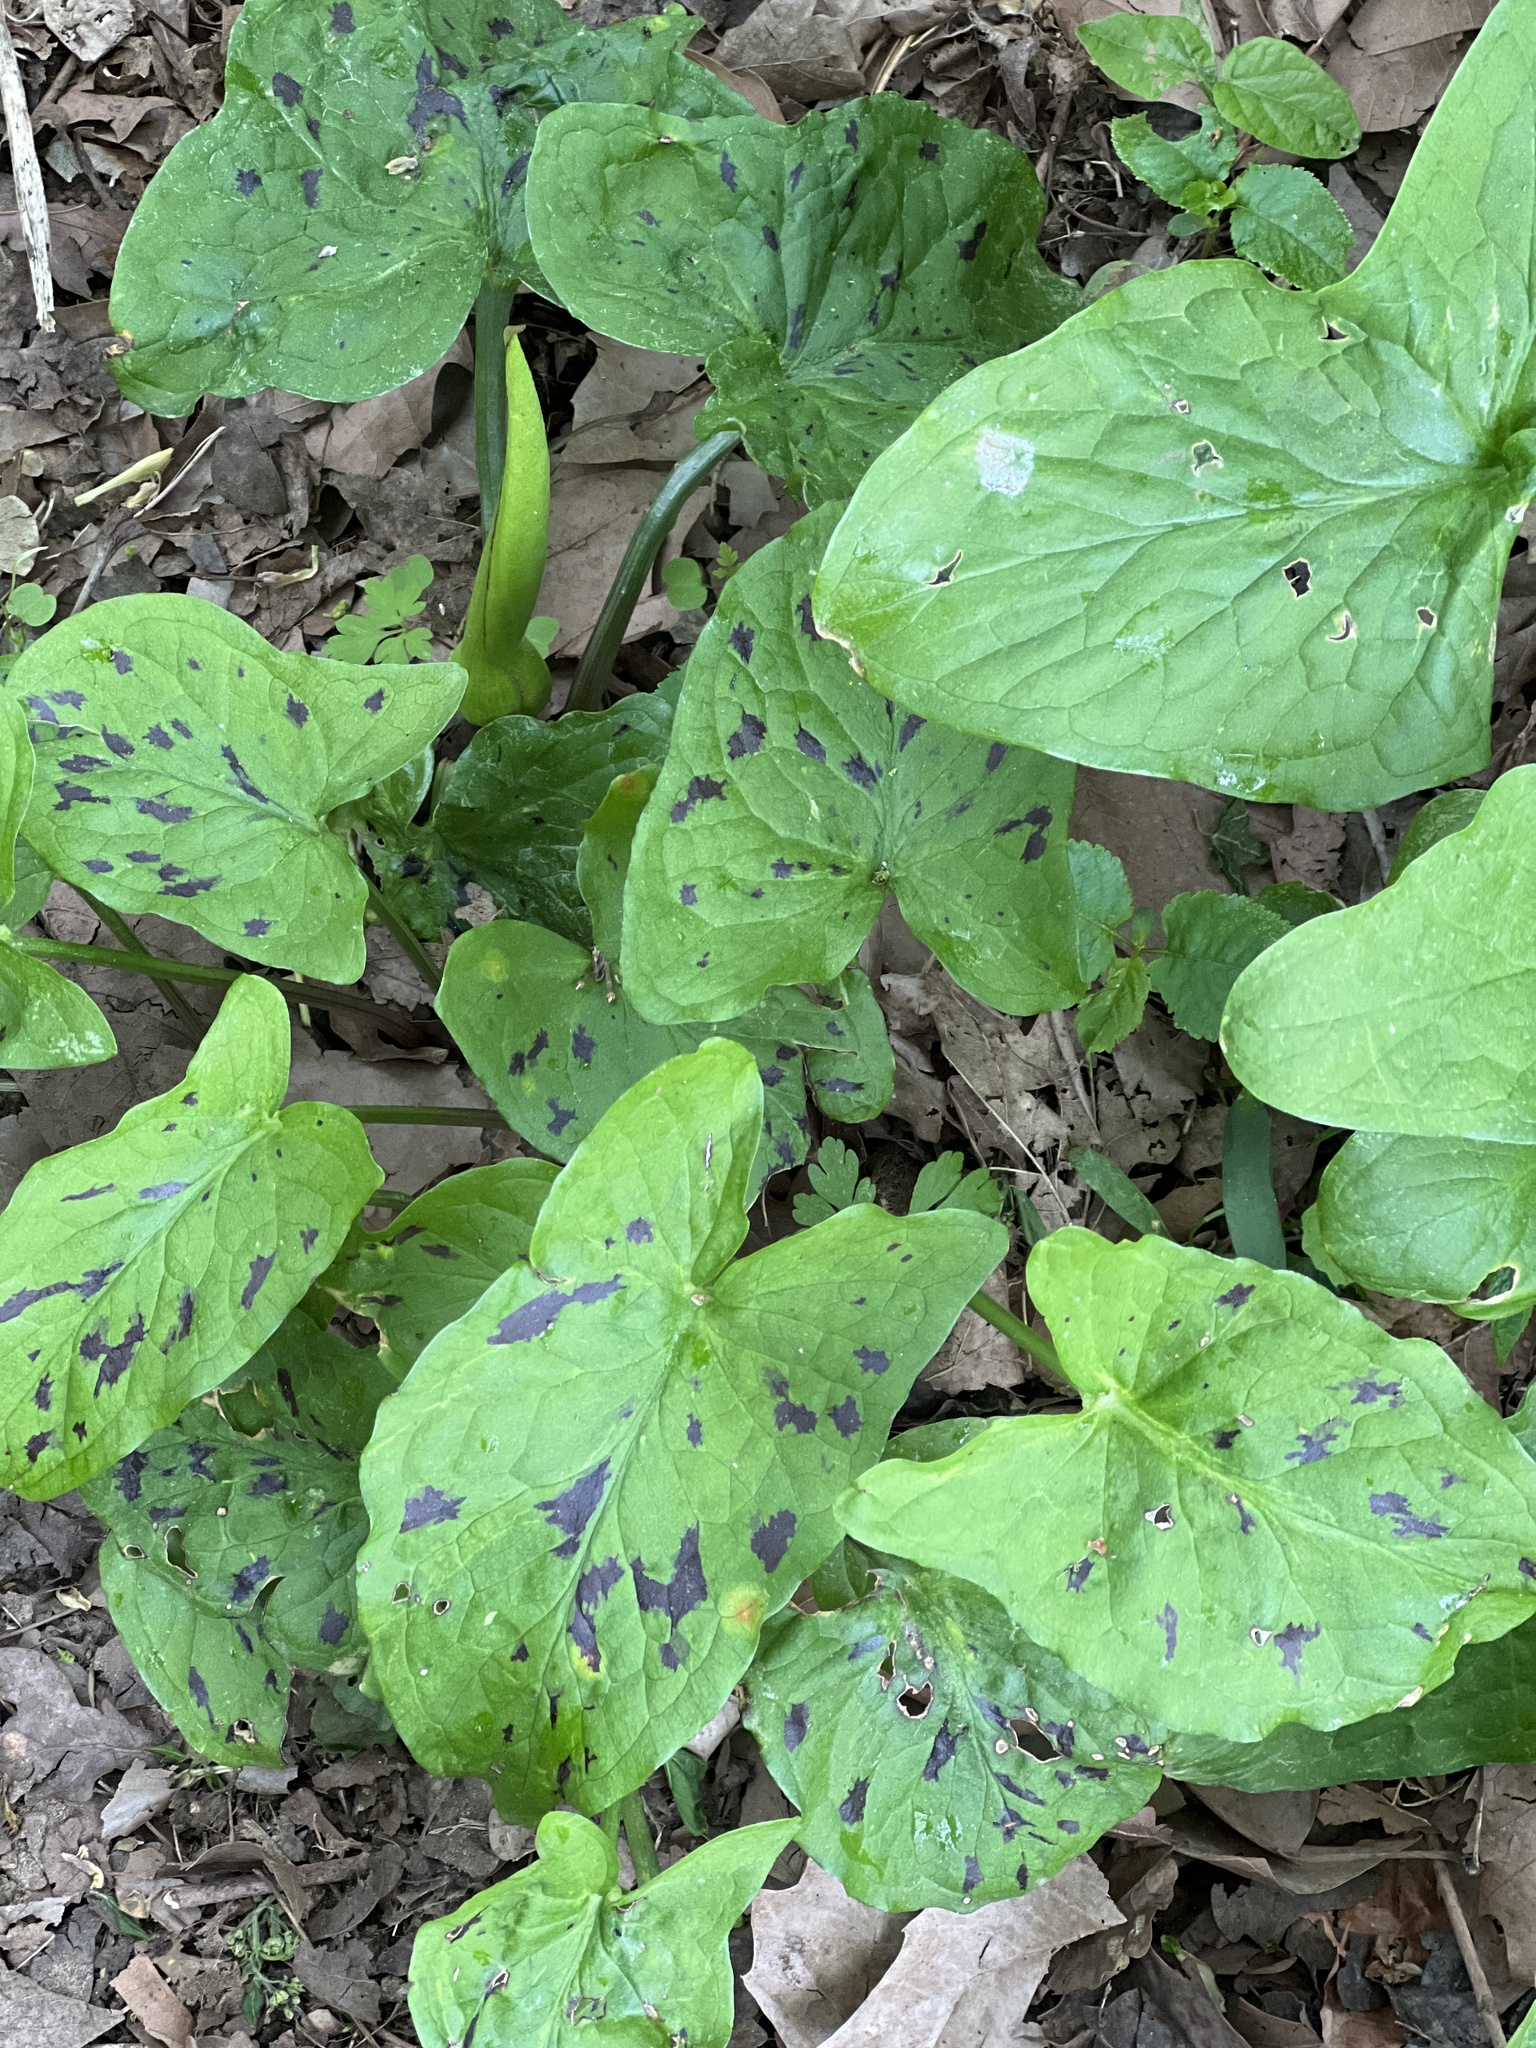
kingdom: Plantae
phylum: Tracheophyta
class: Liliopsida
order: Alismatales
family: Araceae
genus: Arum
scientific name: Arum maculatum
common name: Lords-and-ladies
